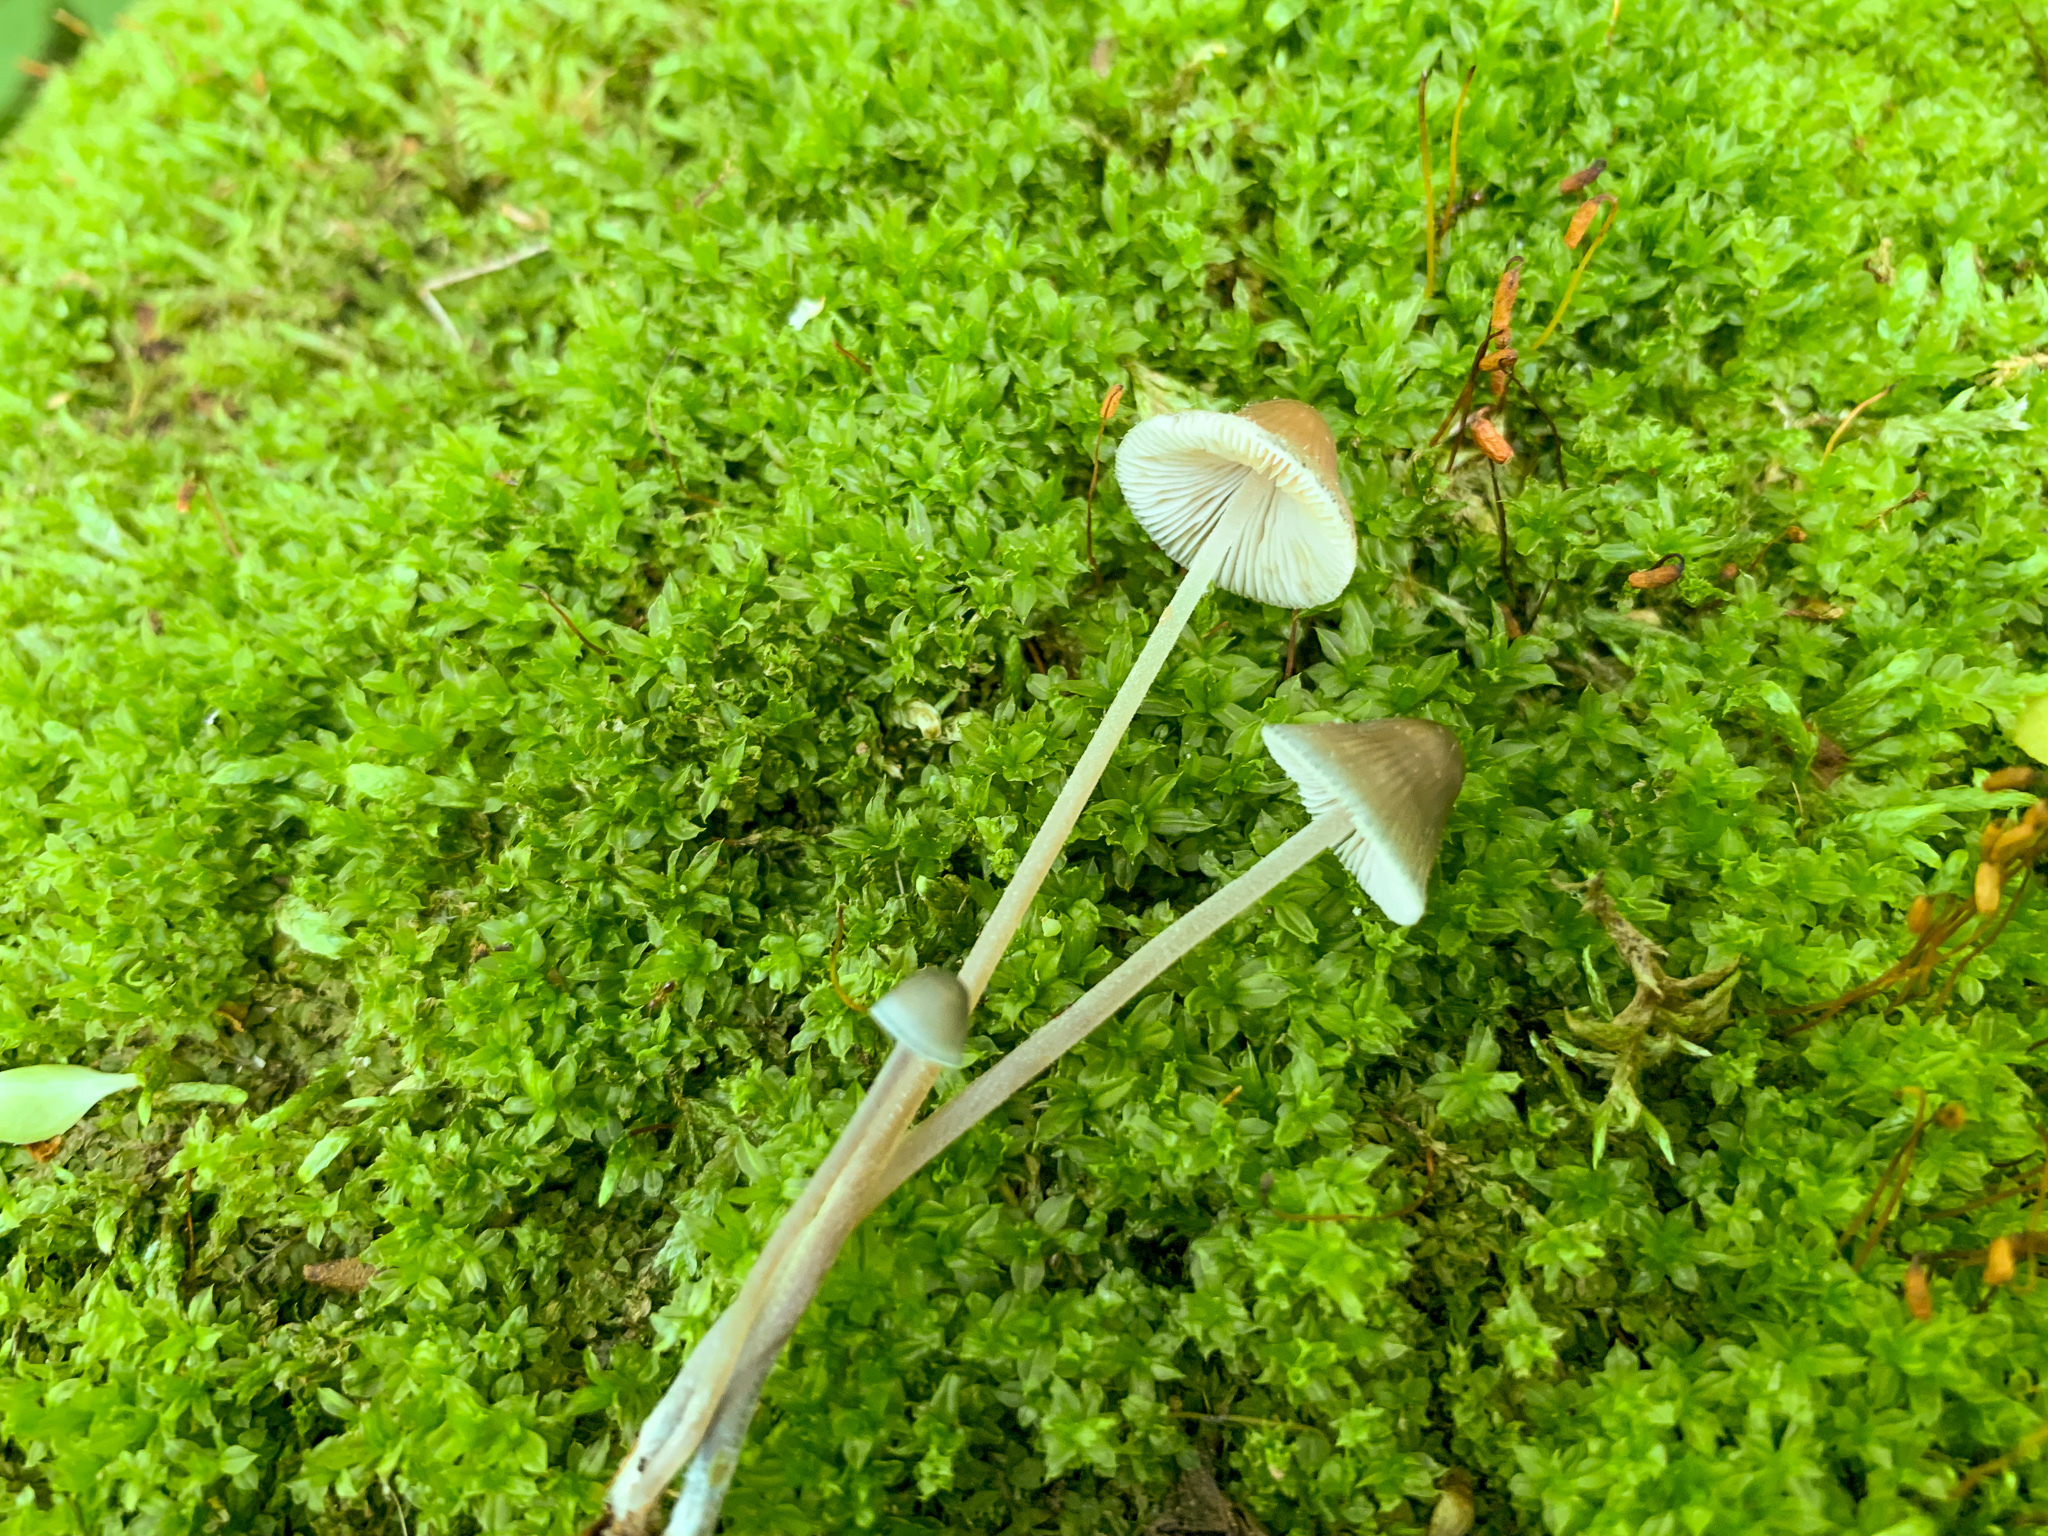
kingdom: Fungi
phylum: Basidiomycota
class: Agaricomycetes
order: Agaricales
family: Mycenaceae
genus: Mycena
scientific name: Mycena subcaerulea
